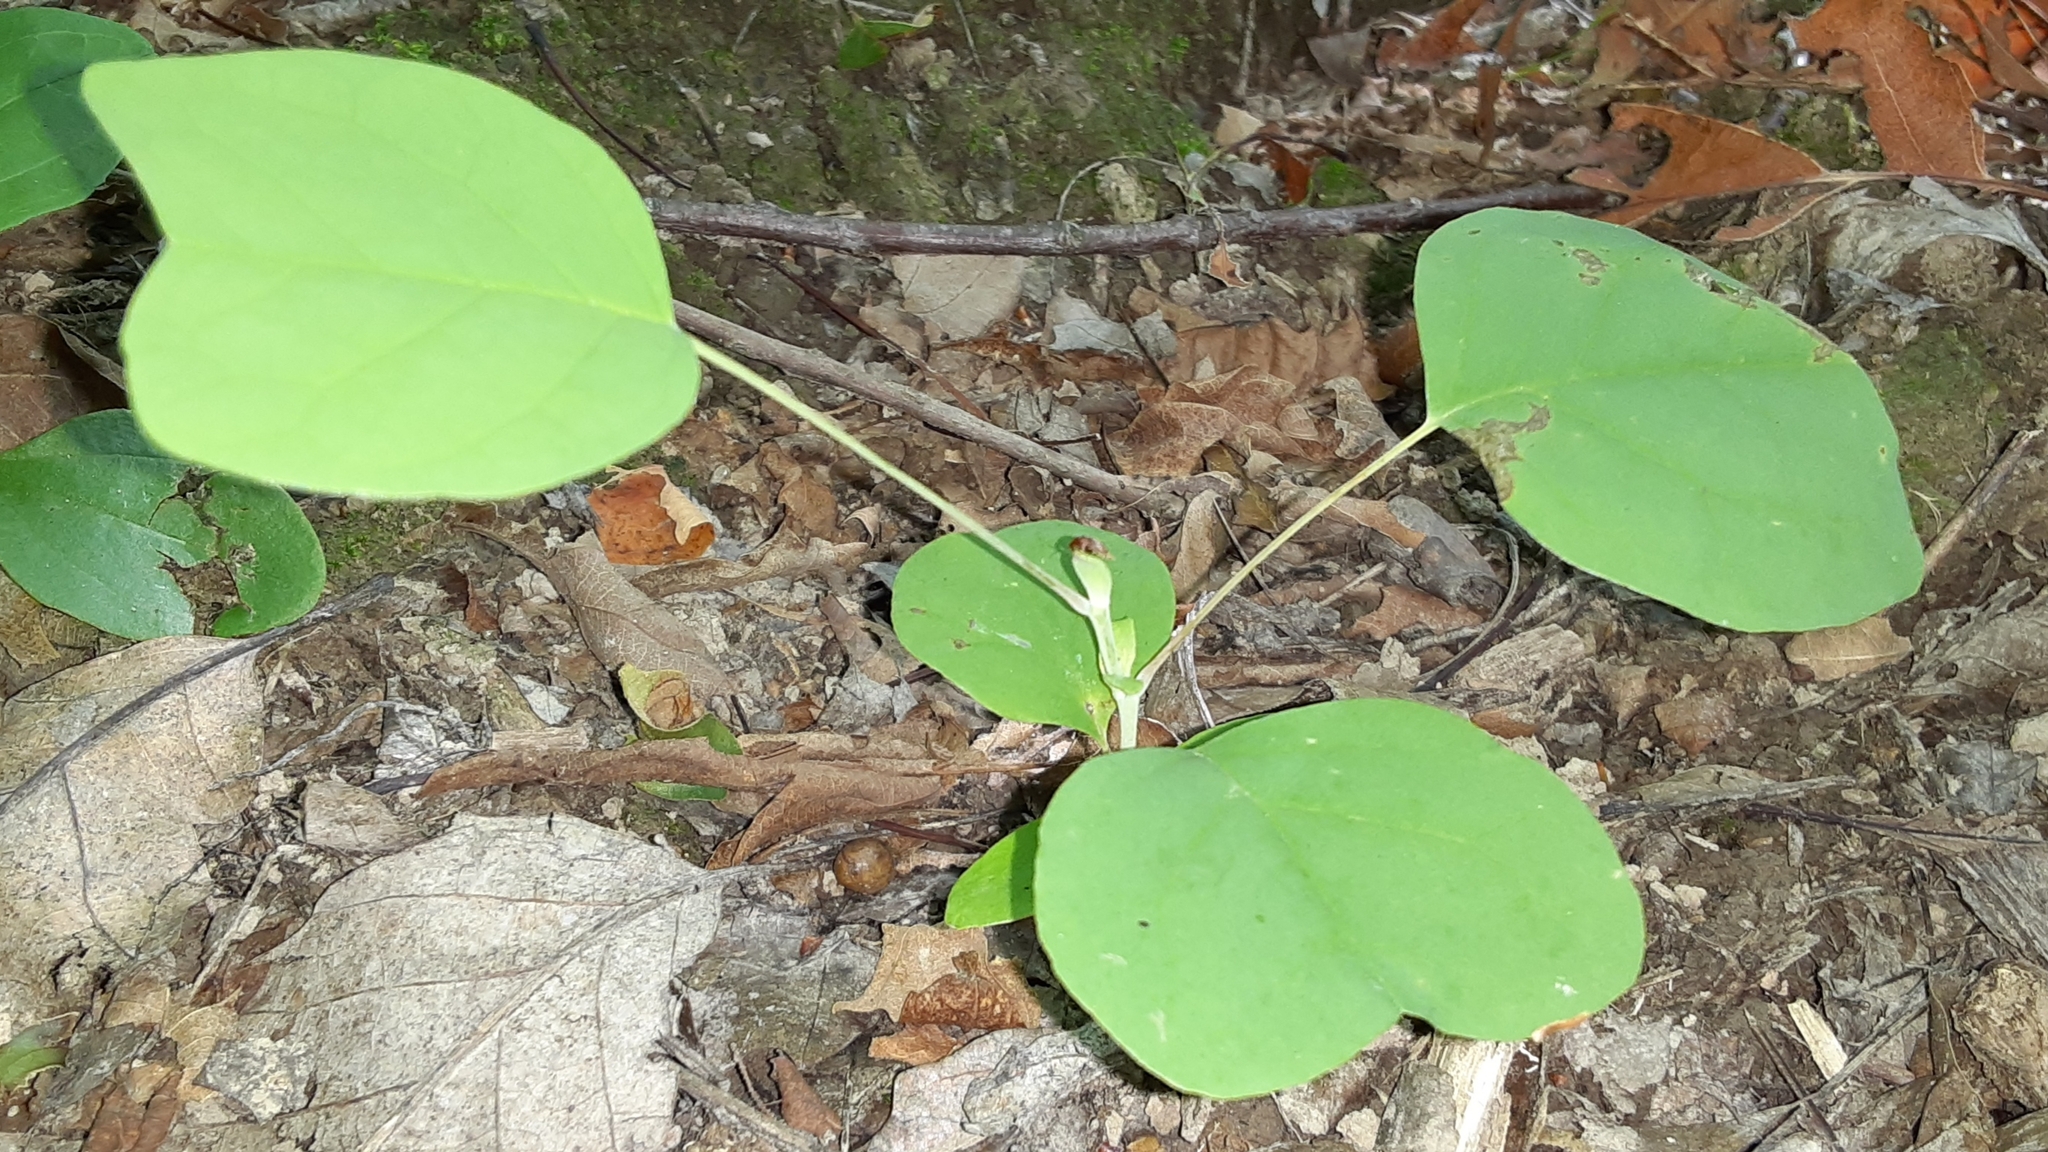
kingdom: Plantae
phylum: Tracheophyta
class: Magnoliopsida
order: Magnoliales
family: Magnoliaceae
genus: Liriodendron
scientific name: Liriodendron tulipifera
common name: Tulip tree
